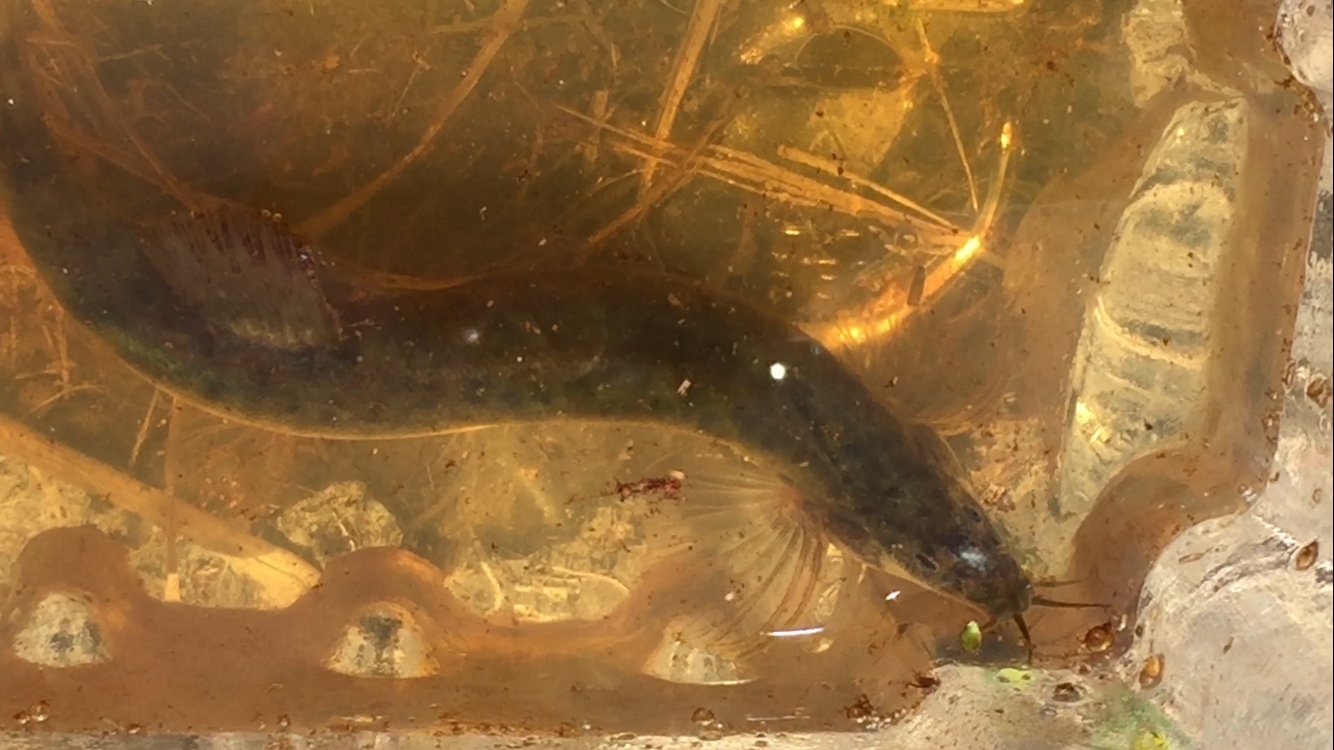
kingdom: Animalia
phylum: Chordata
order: Cypriniformes
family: Cobitidae
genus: Misgurnus
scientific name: Misgurnus anguillicaudatus
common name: Oriental weatherfish
